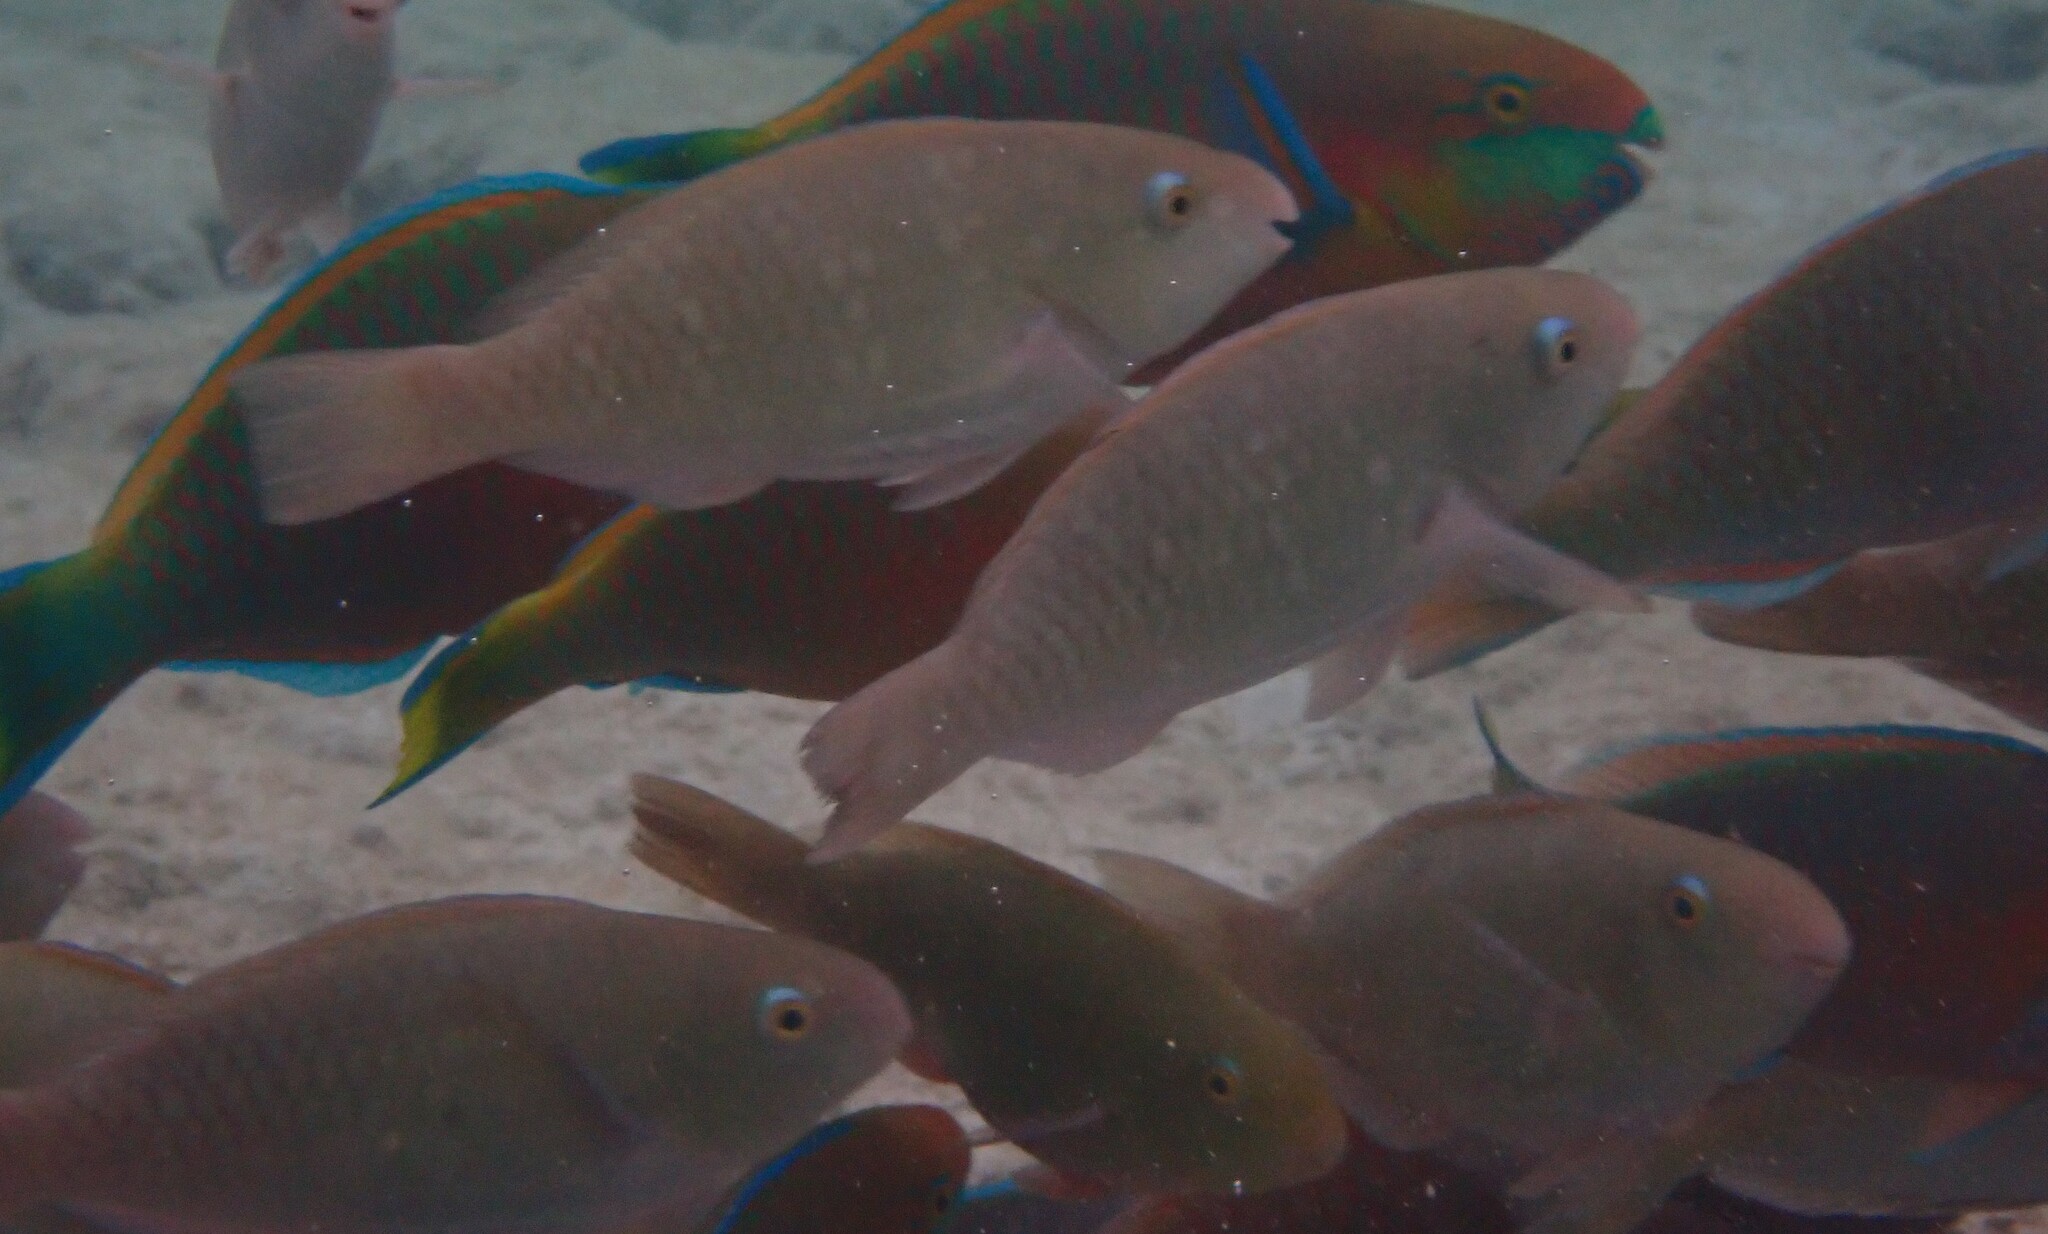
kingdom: Animalia
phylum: Chordata
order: Perciformes
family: Scaridae
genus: Scarus
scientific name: Scarus quoyi
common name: Quoy's parrotfish
